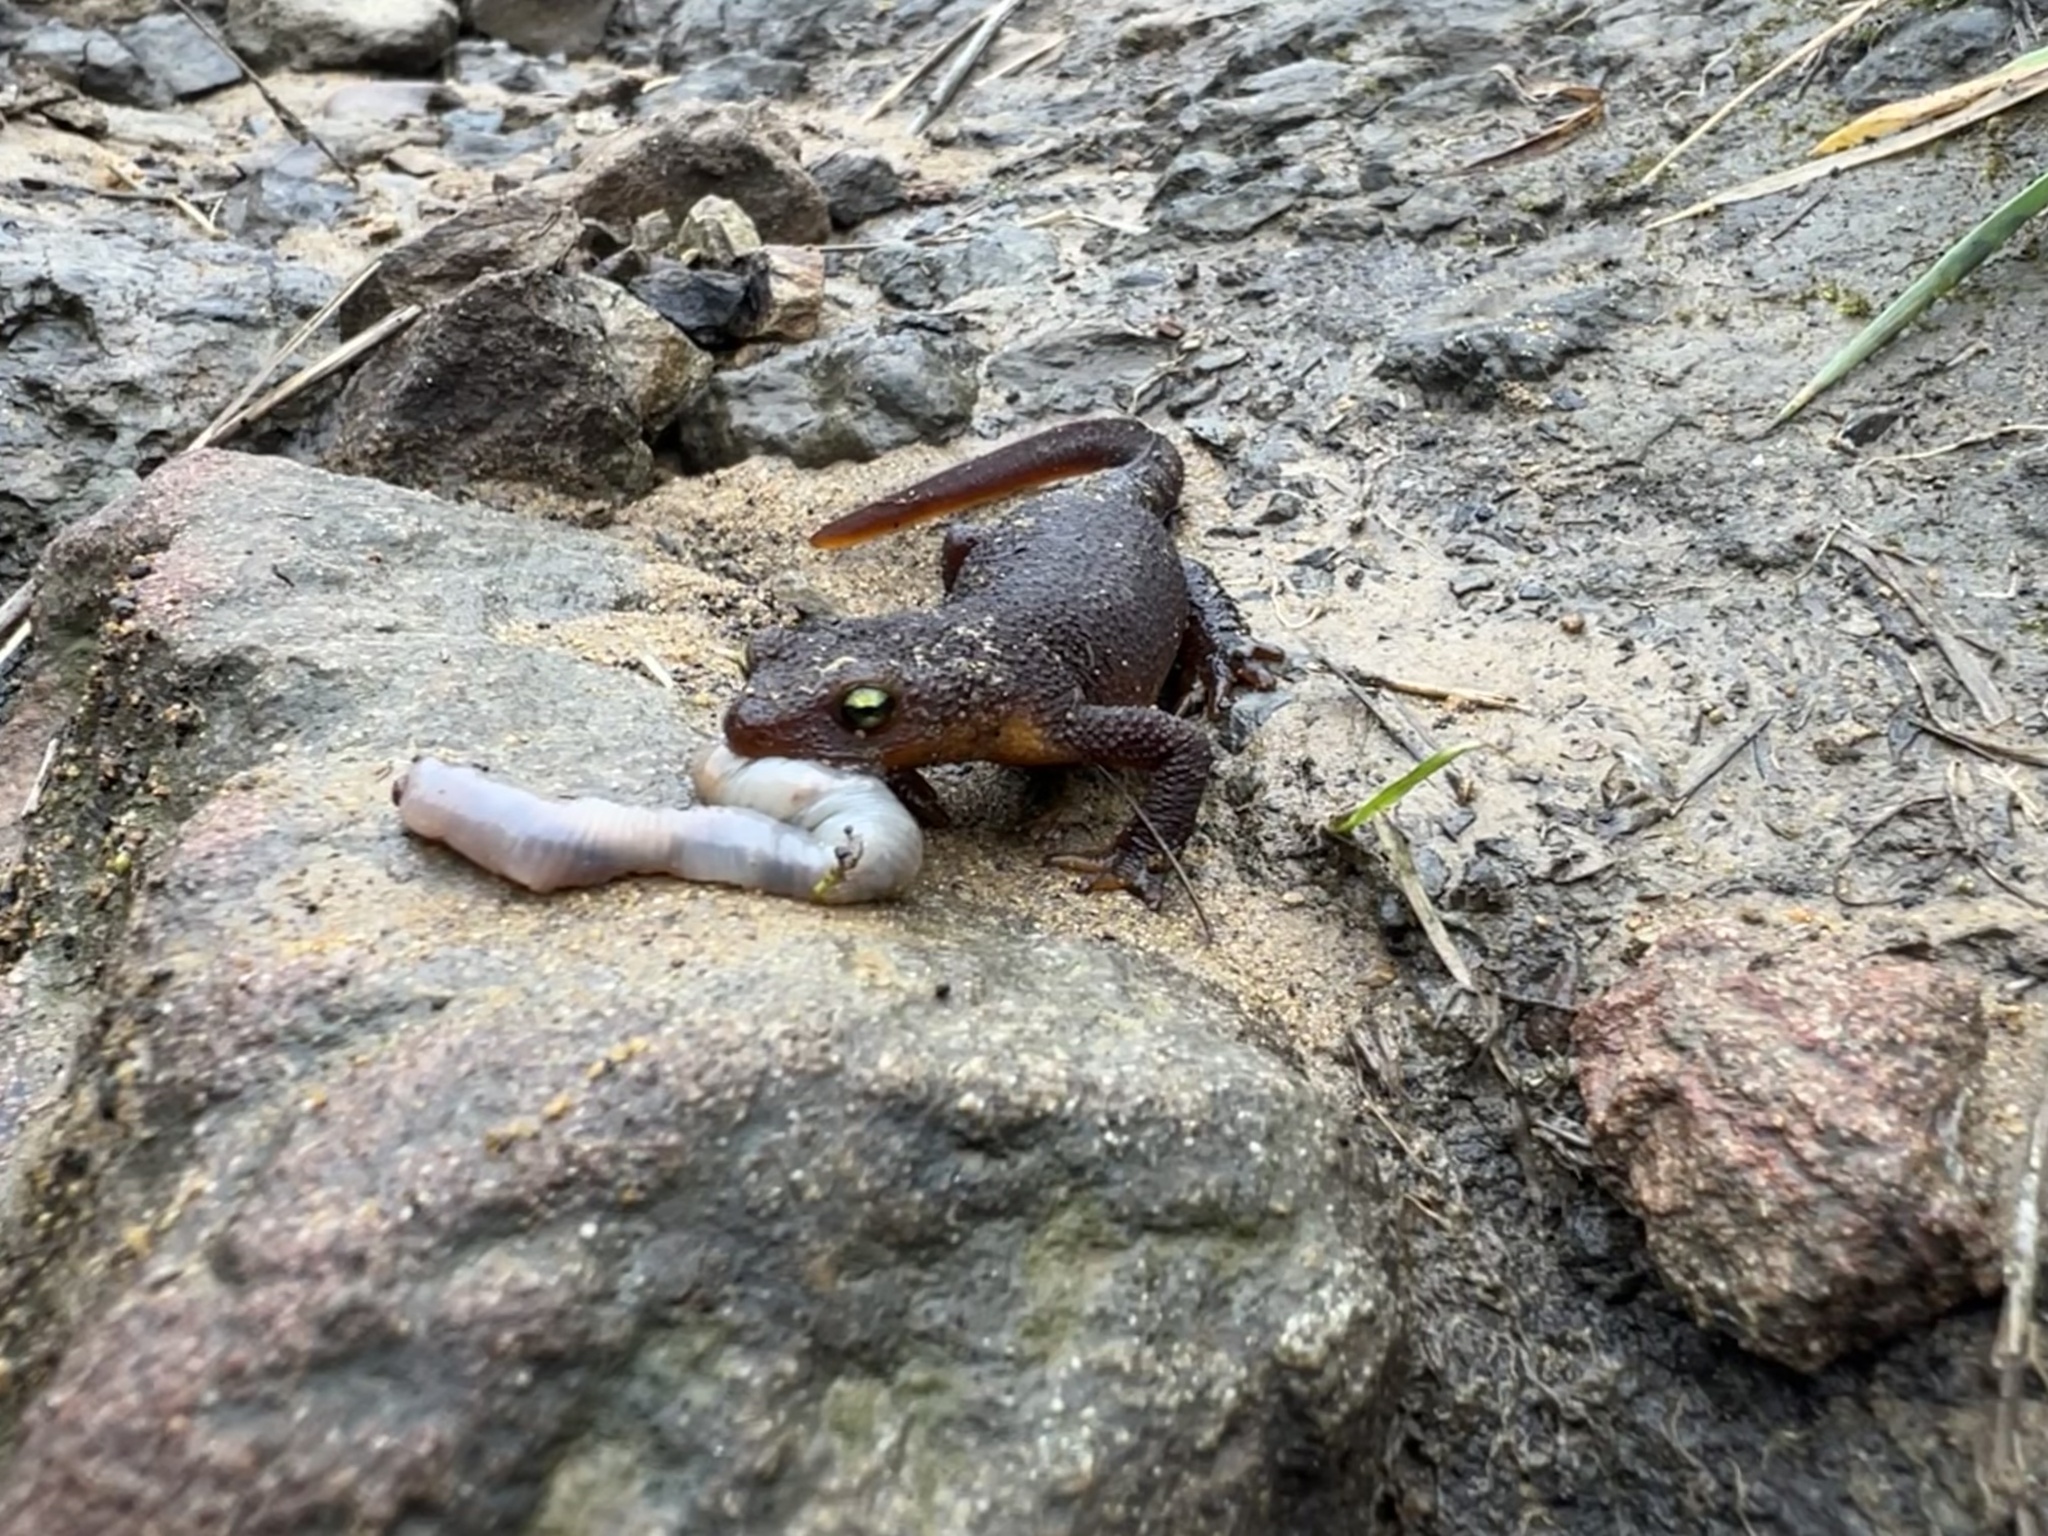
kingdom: Animalia
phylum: Chordata
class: Amphibia
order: Caudata
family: Salamandridae
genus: Taricha
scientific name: Taricha torosa
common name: California newt
